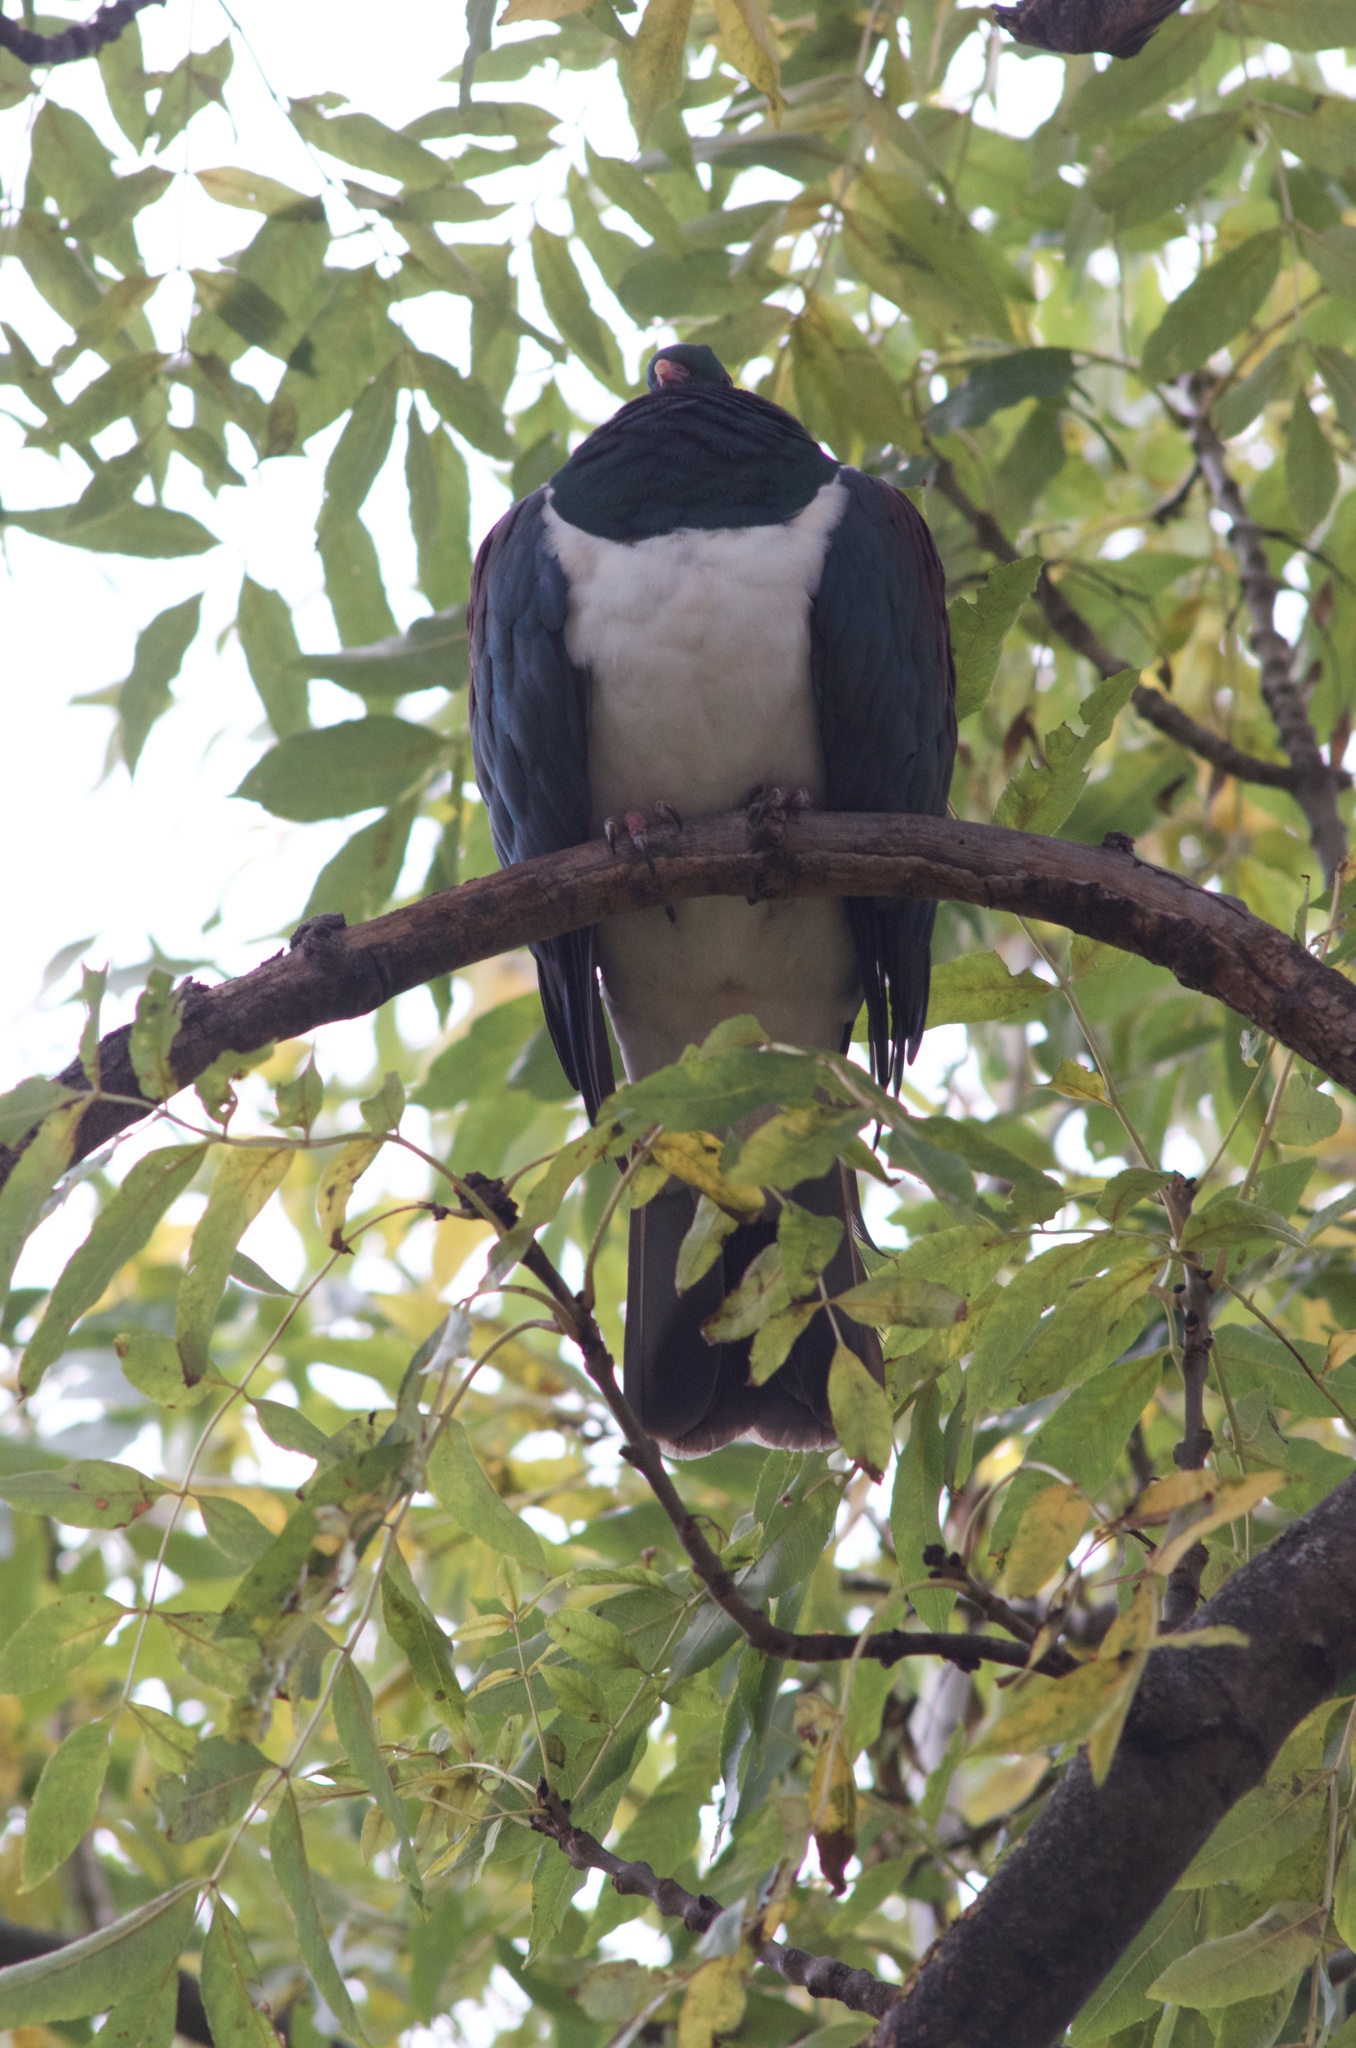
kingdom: Animalia
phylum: Chordata
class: Aves
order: Columbiformes
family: Columbidae
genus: Hemiphaga
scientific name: Hemiphaga novaeseelandiae
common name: New zealand pigeon
